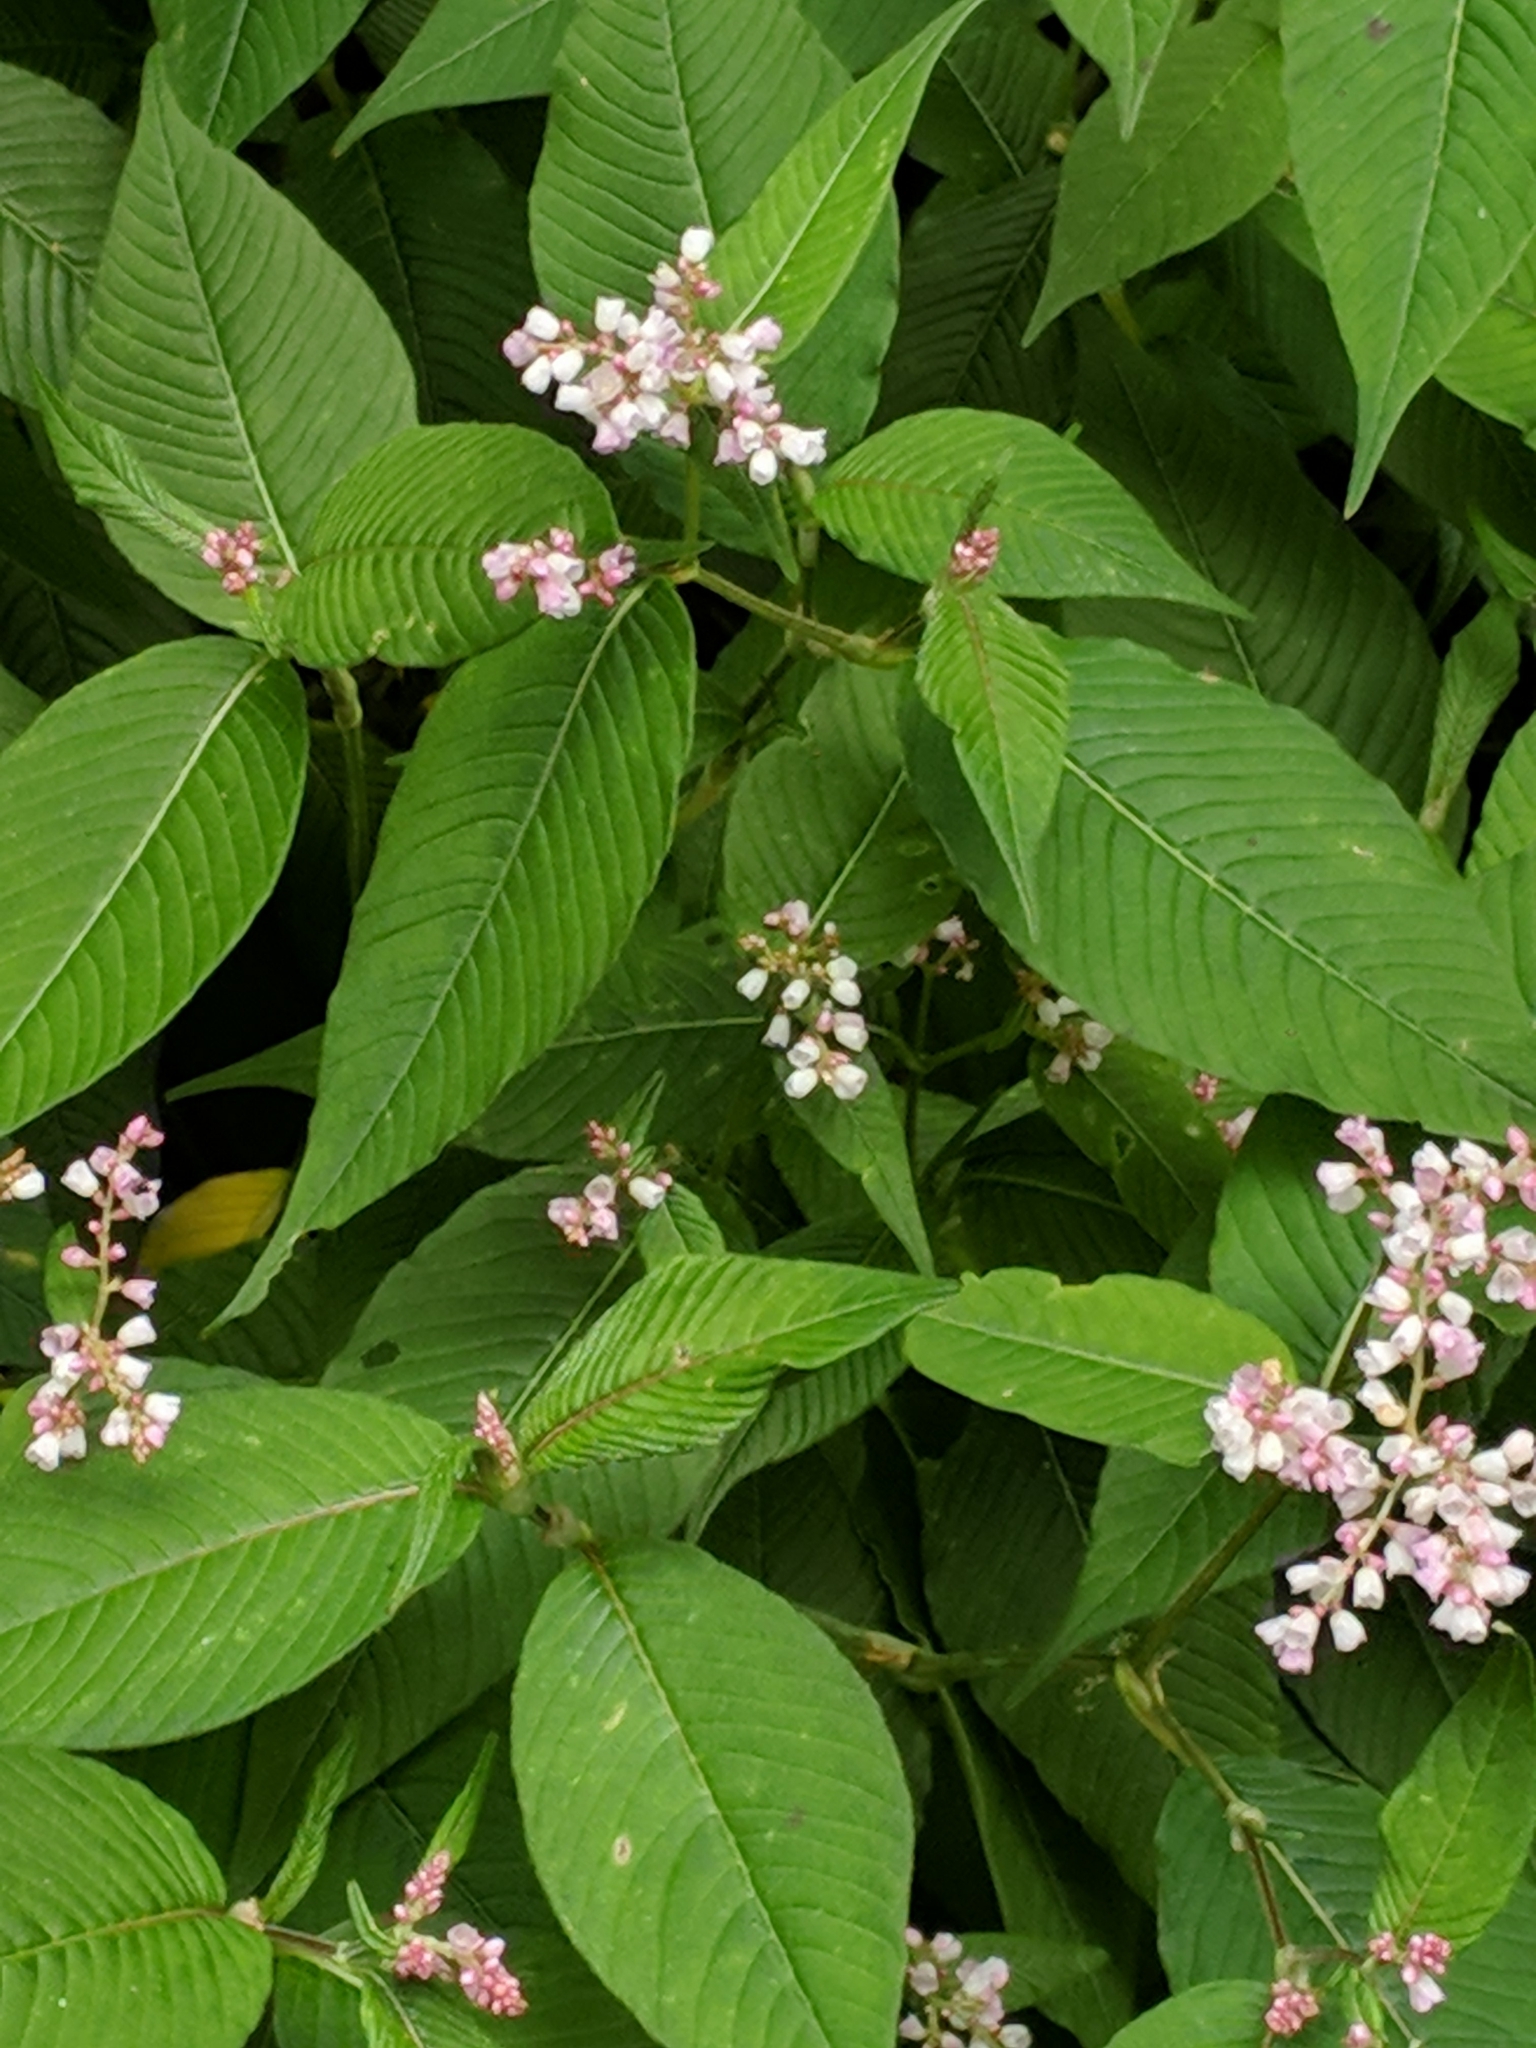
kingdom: Plantae
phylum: Tracheophyta
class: Magnoliopsida
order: Caryophyllales
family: Polygonaceae
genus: Koenigia
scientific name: Koenigia campanulata
